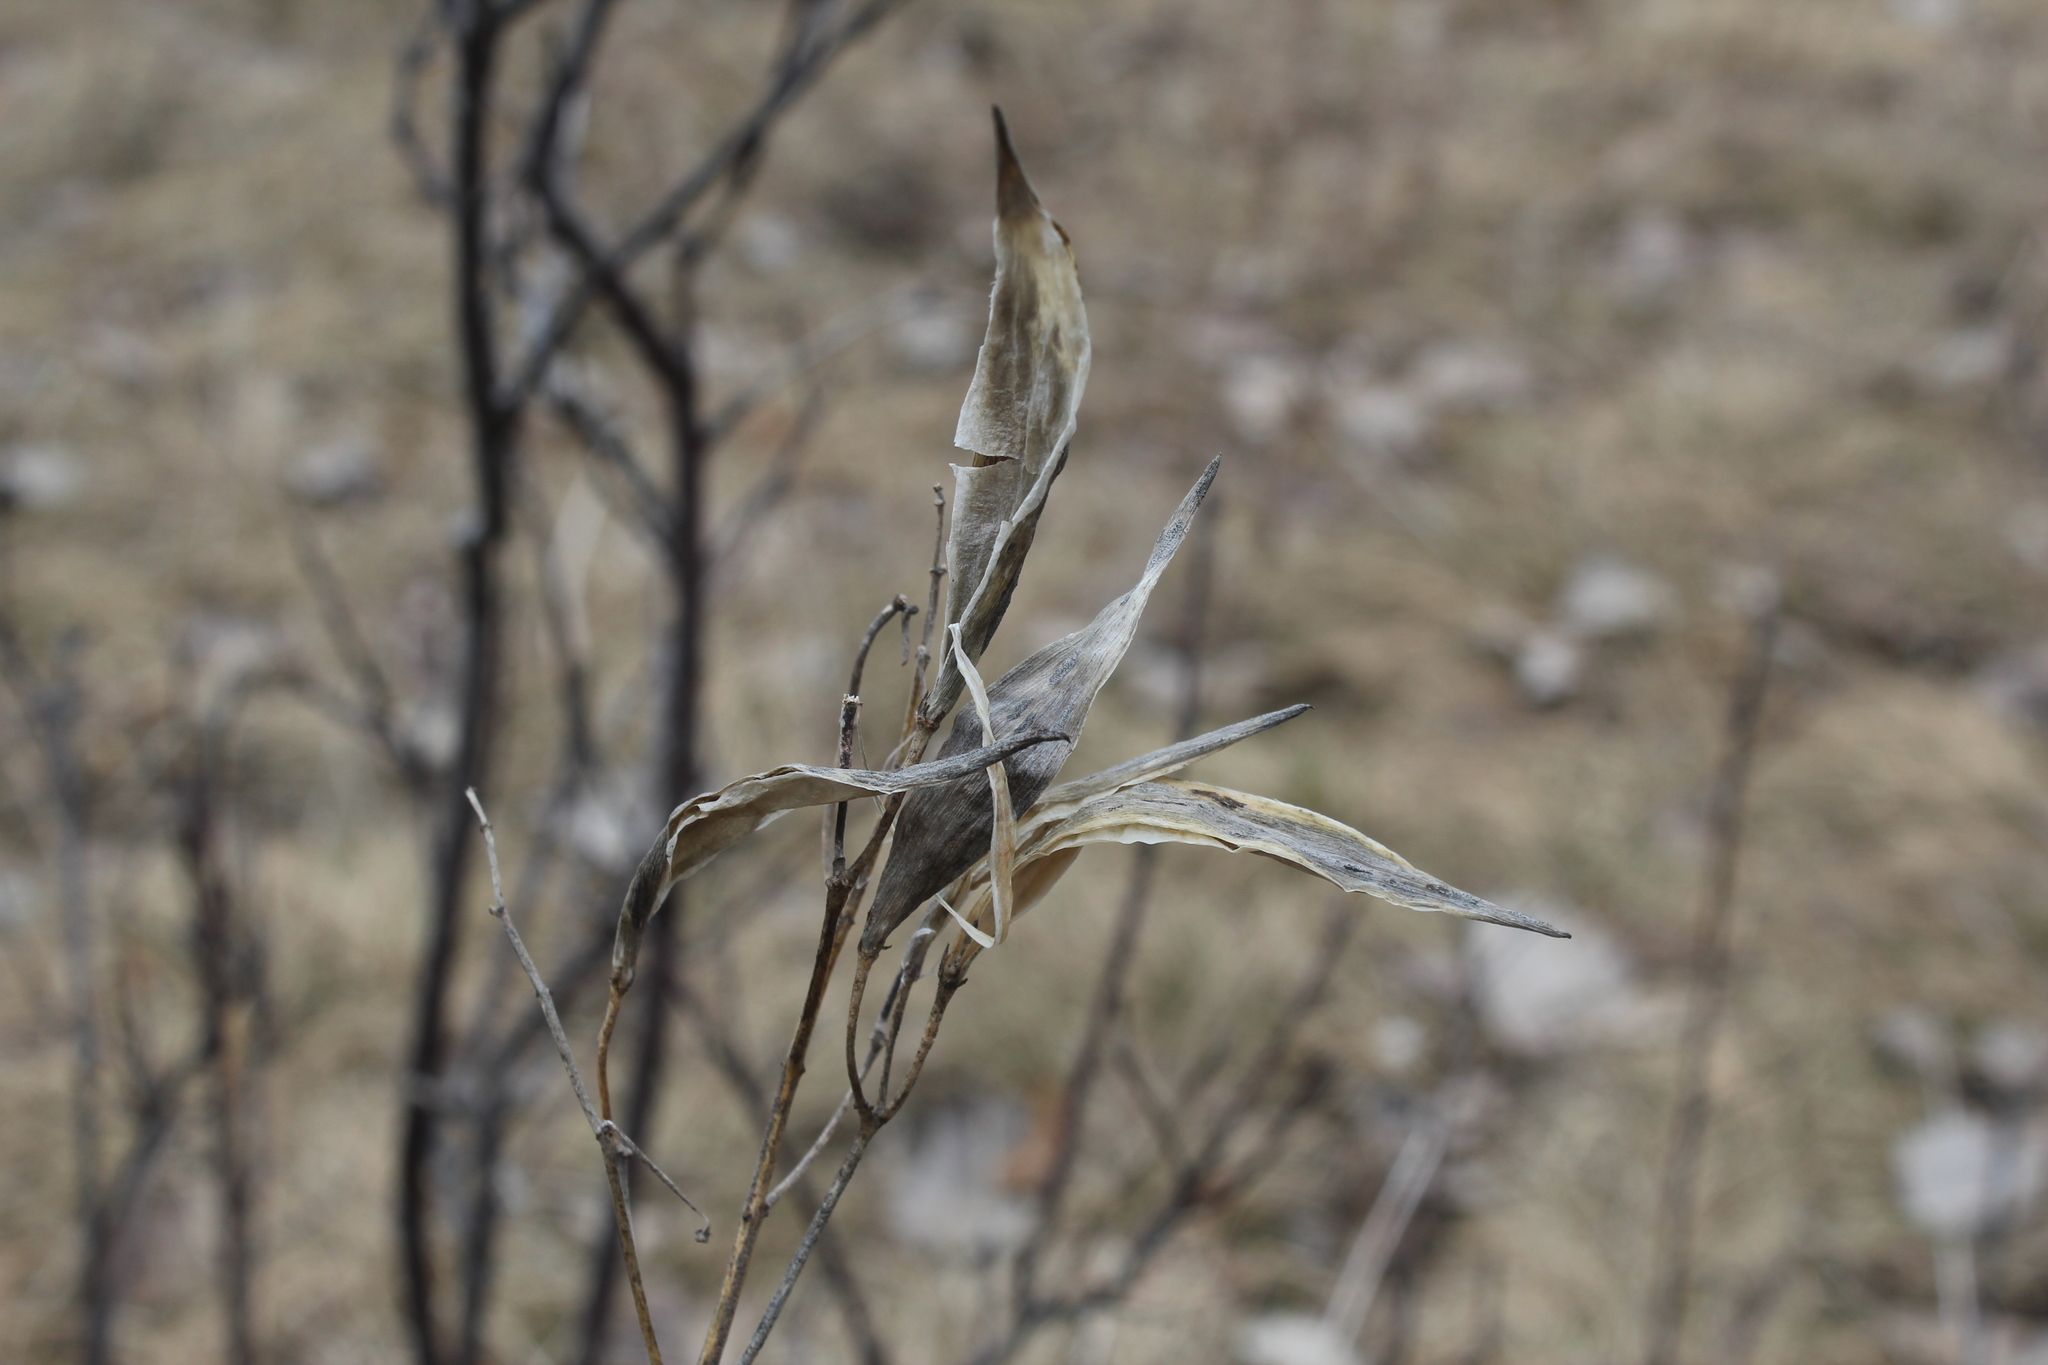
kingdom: Plantae
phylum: Tracheophyta
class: Magnoliopsida
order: Gentianales
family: Apocynaceae
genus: Asclepias
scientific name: Asclepias verticillata
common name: Eastern whorled milkweed
